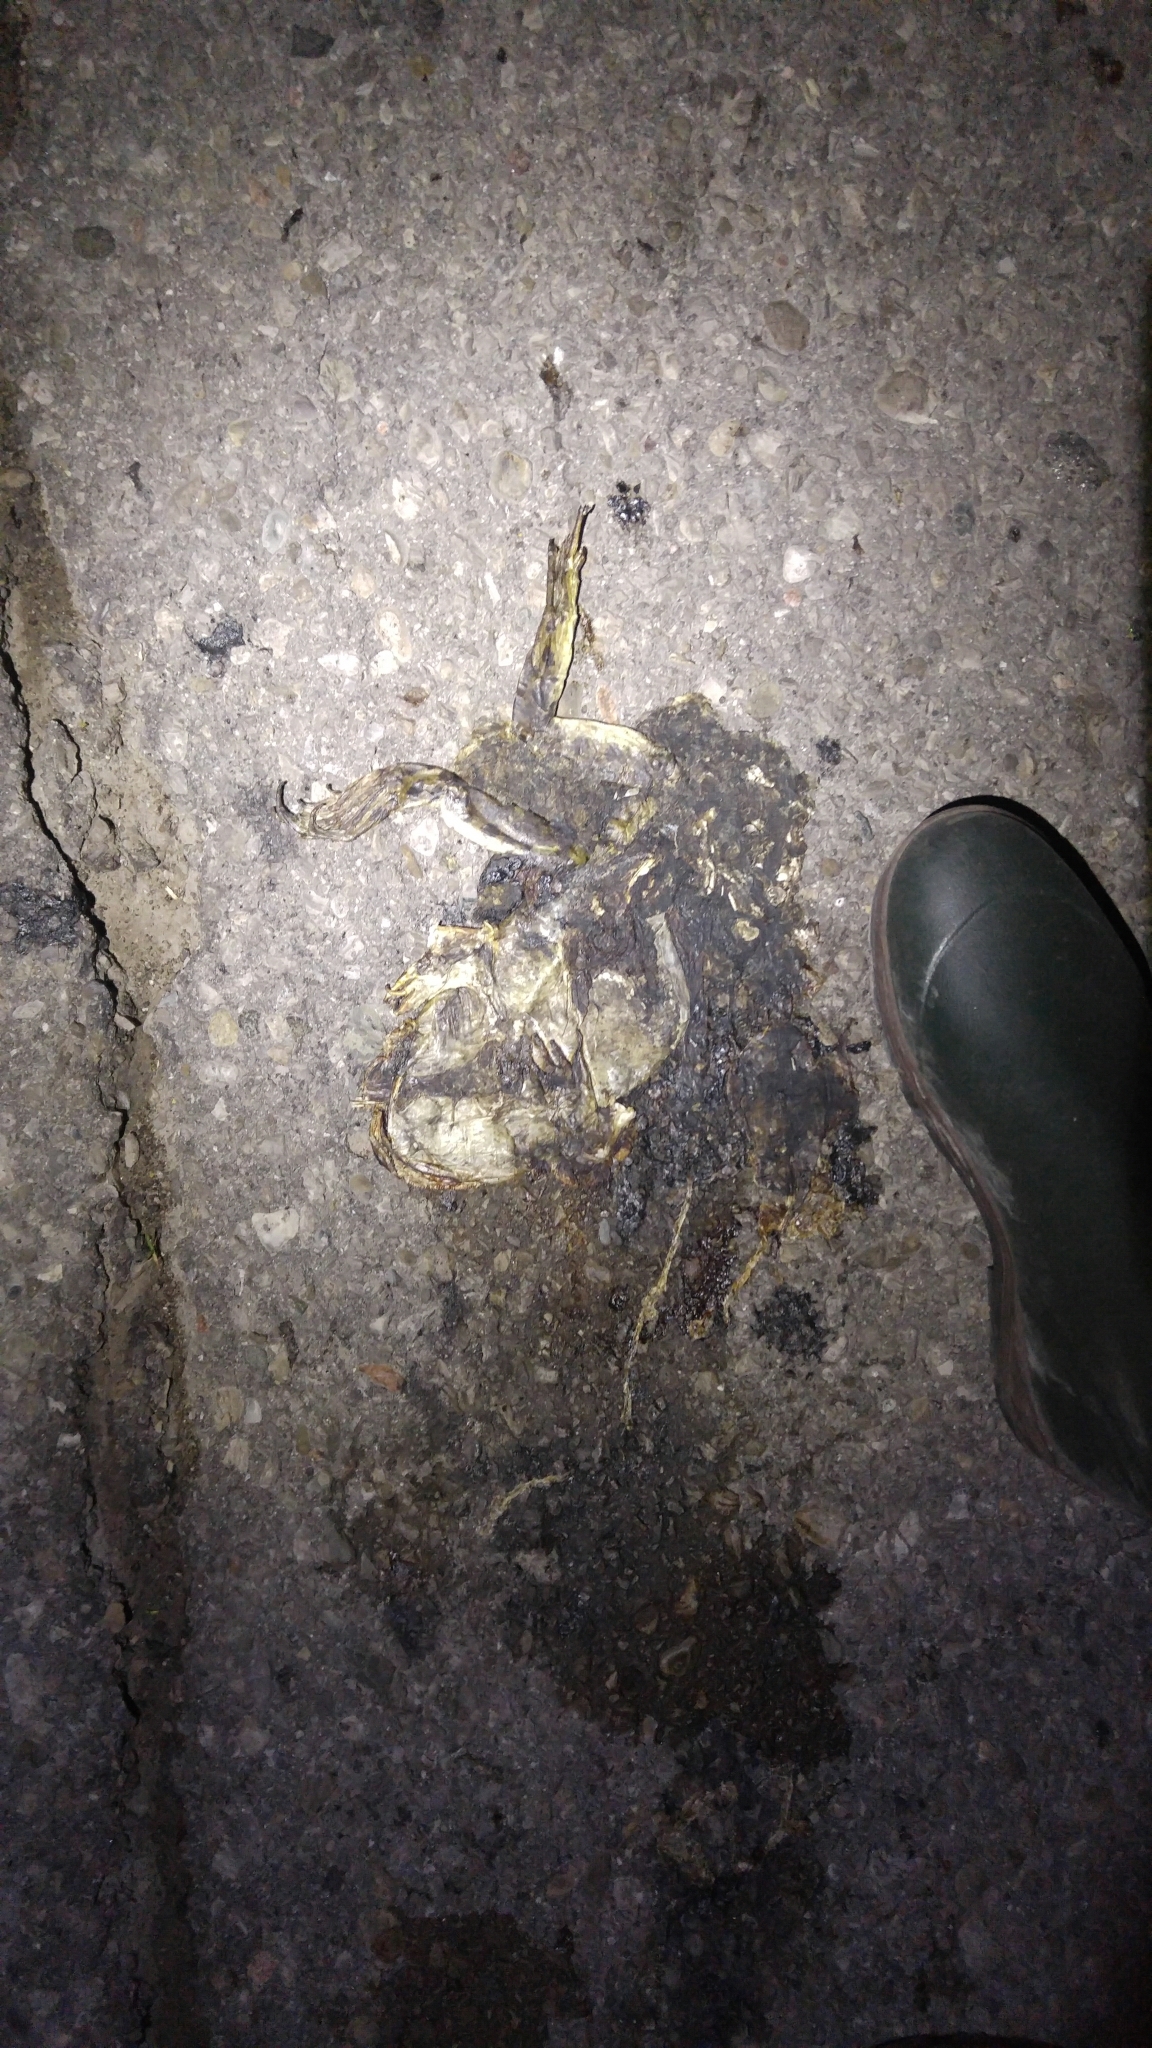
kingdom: Animalia
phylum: Chordata
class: Amphibia
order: Anura
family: Ranidae
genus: Lithobates
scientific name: Lithobates catesbeianus
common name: American bullfrog
